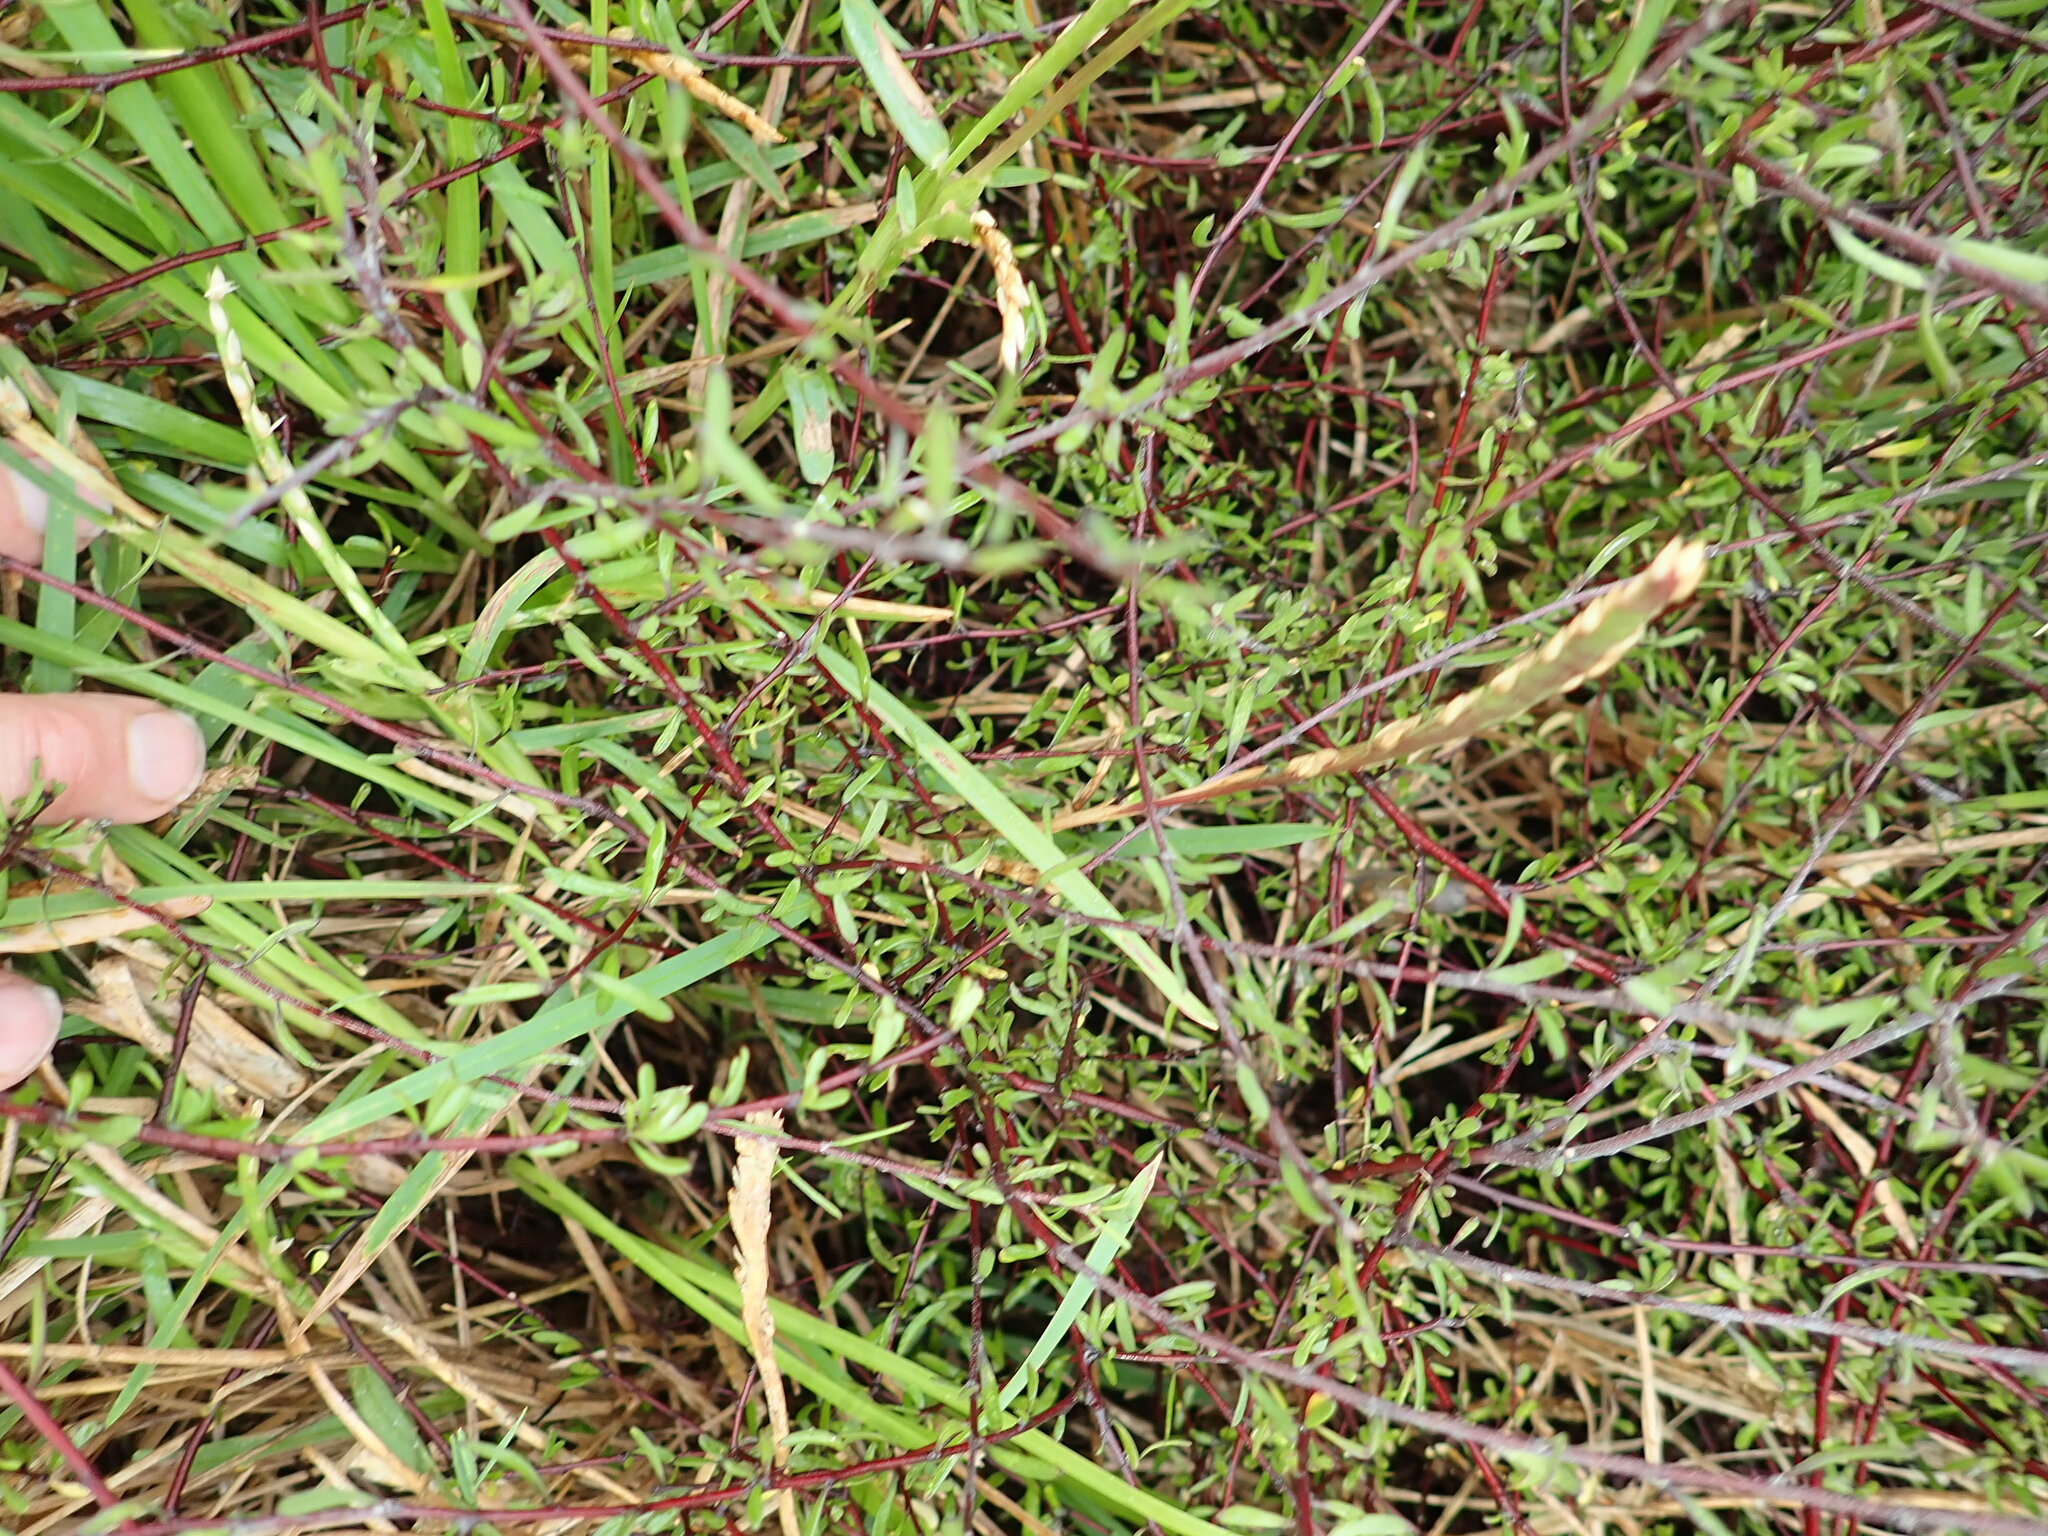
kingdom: Plantae
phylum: Tracheophyta
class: Magnoliopsida
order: Malvales
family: Malvaceae
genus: Plagianthus
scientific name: Plagianthus divaricatus
